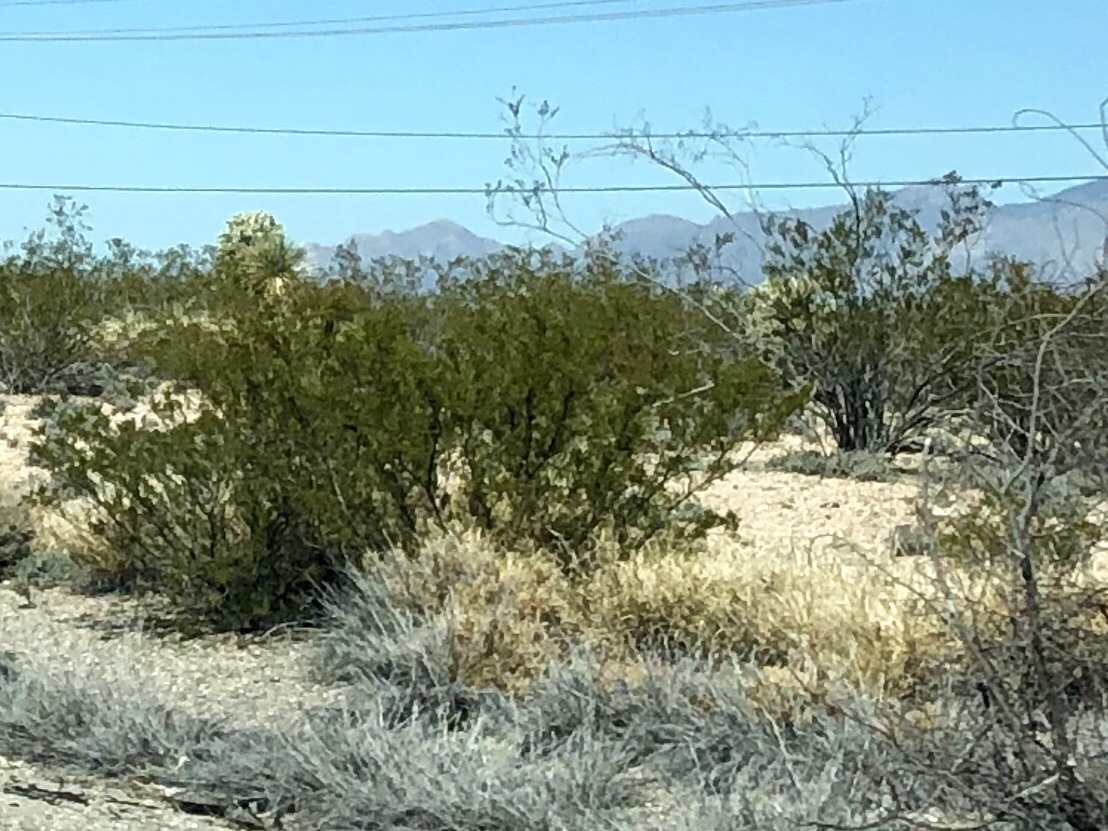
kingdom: Plantae
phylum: Tracheophyta
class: Magnoliopsida
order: Zygophyllales
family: Zygophyllaceae
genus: Larrea
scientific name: Larrea tridentata
